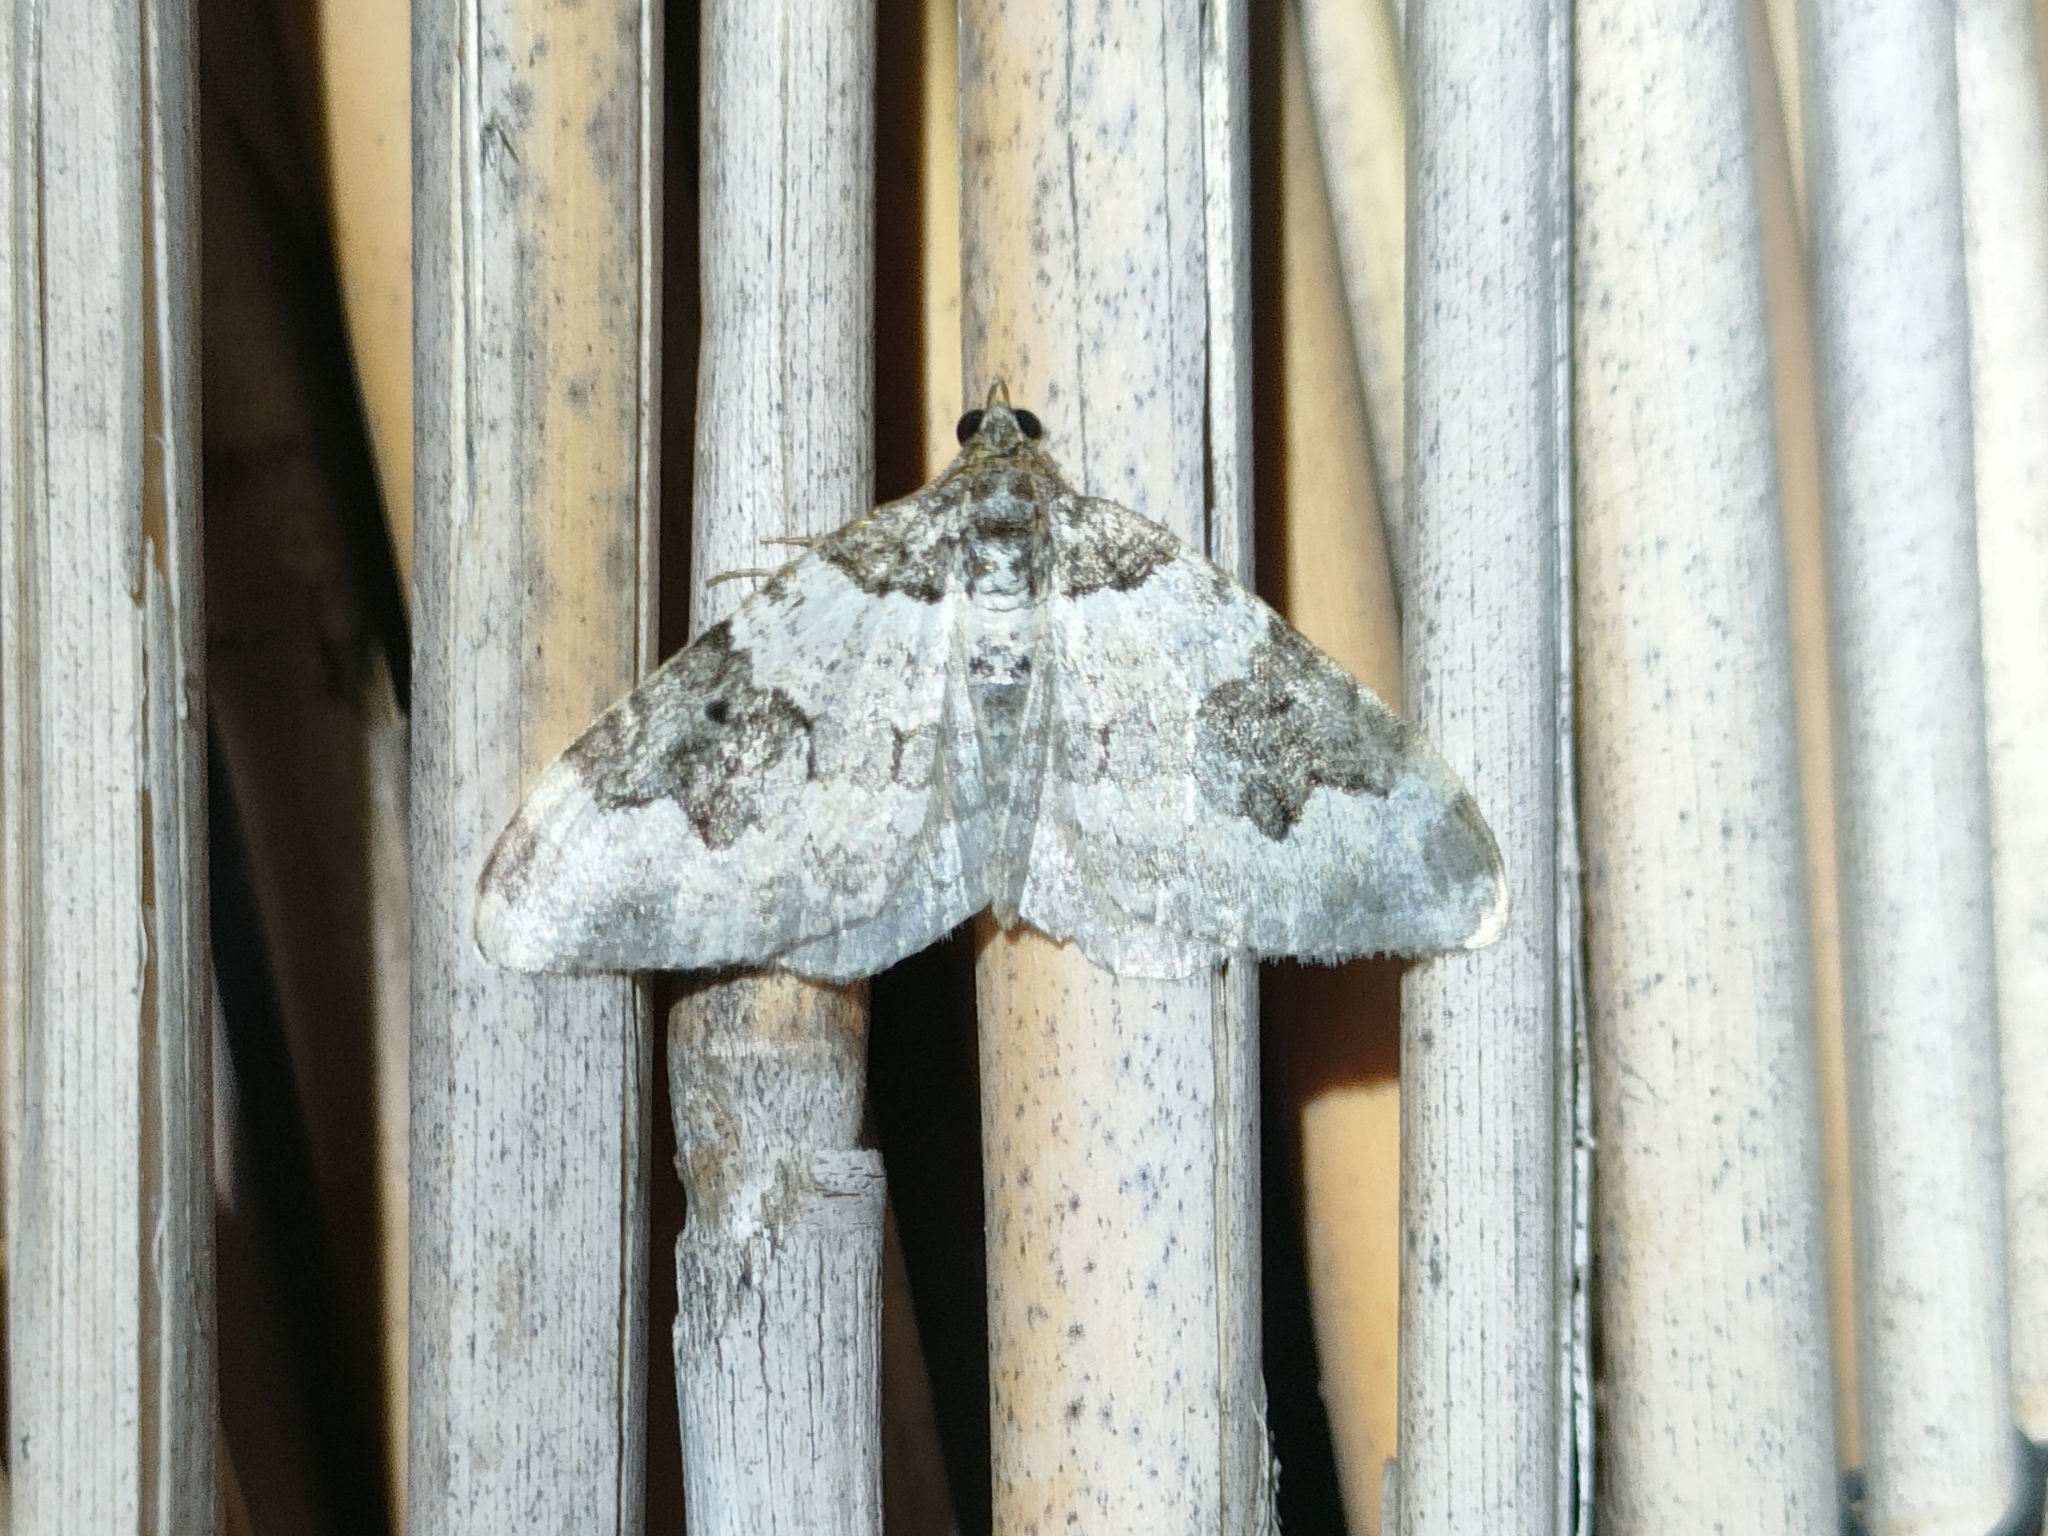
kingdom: Animalia
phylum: Arthropoda
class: Insecta
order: Lepidoptera
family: Geometridae
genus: Xanthorhoe
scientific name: Xanthorhoe fluctuata
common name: Garden carpet
